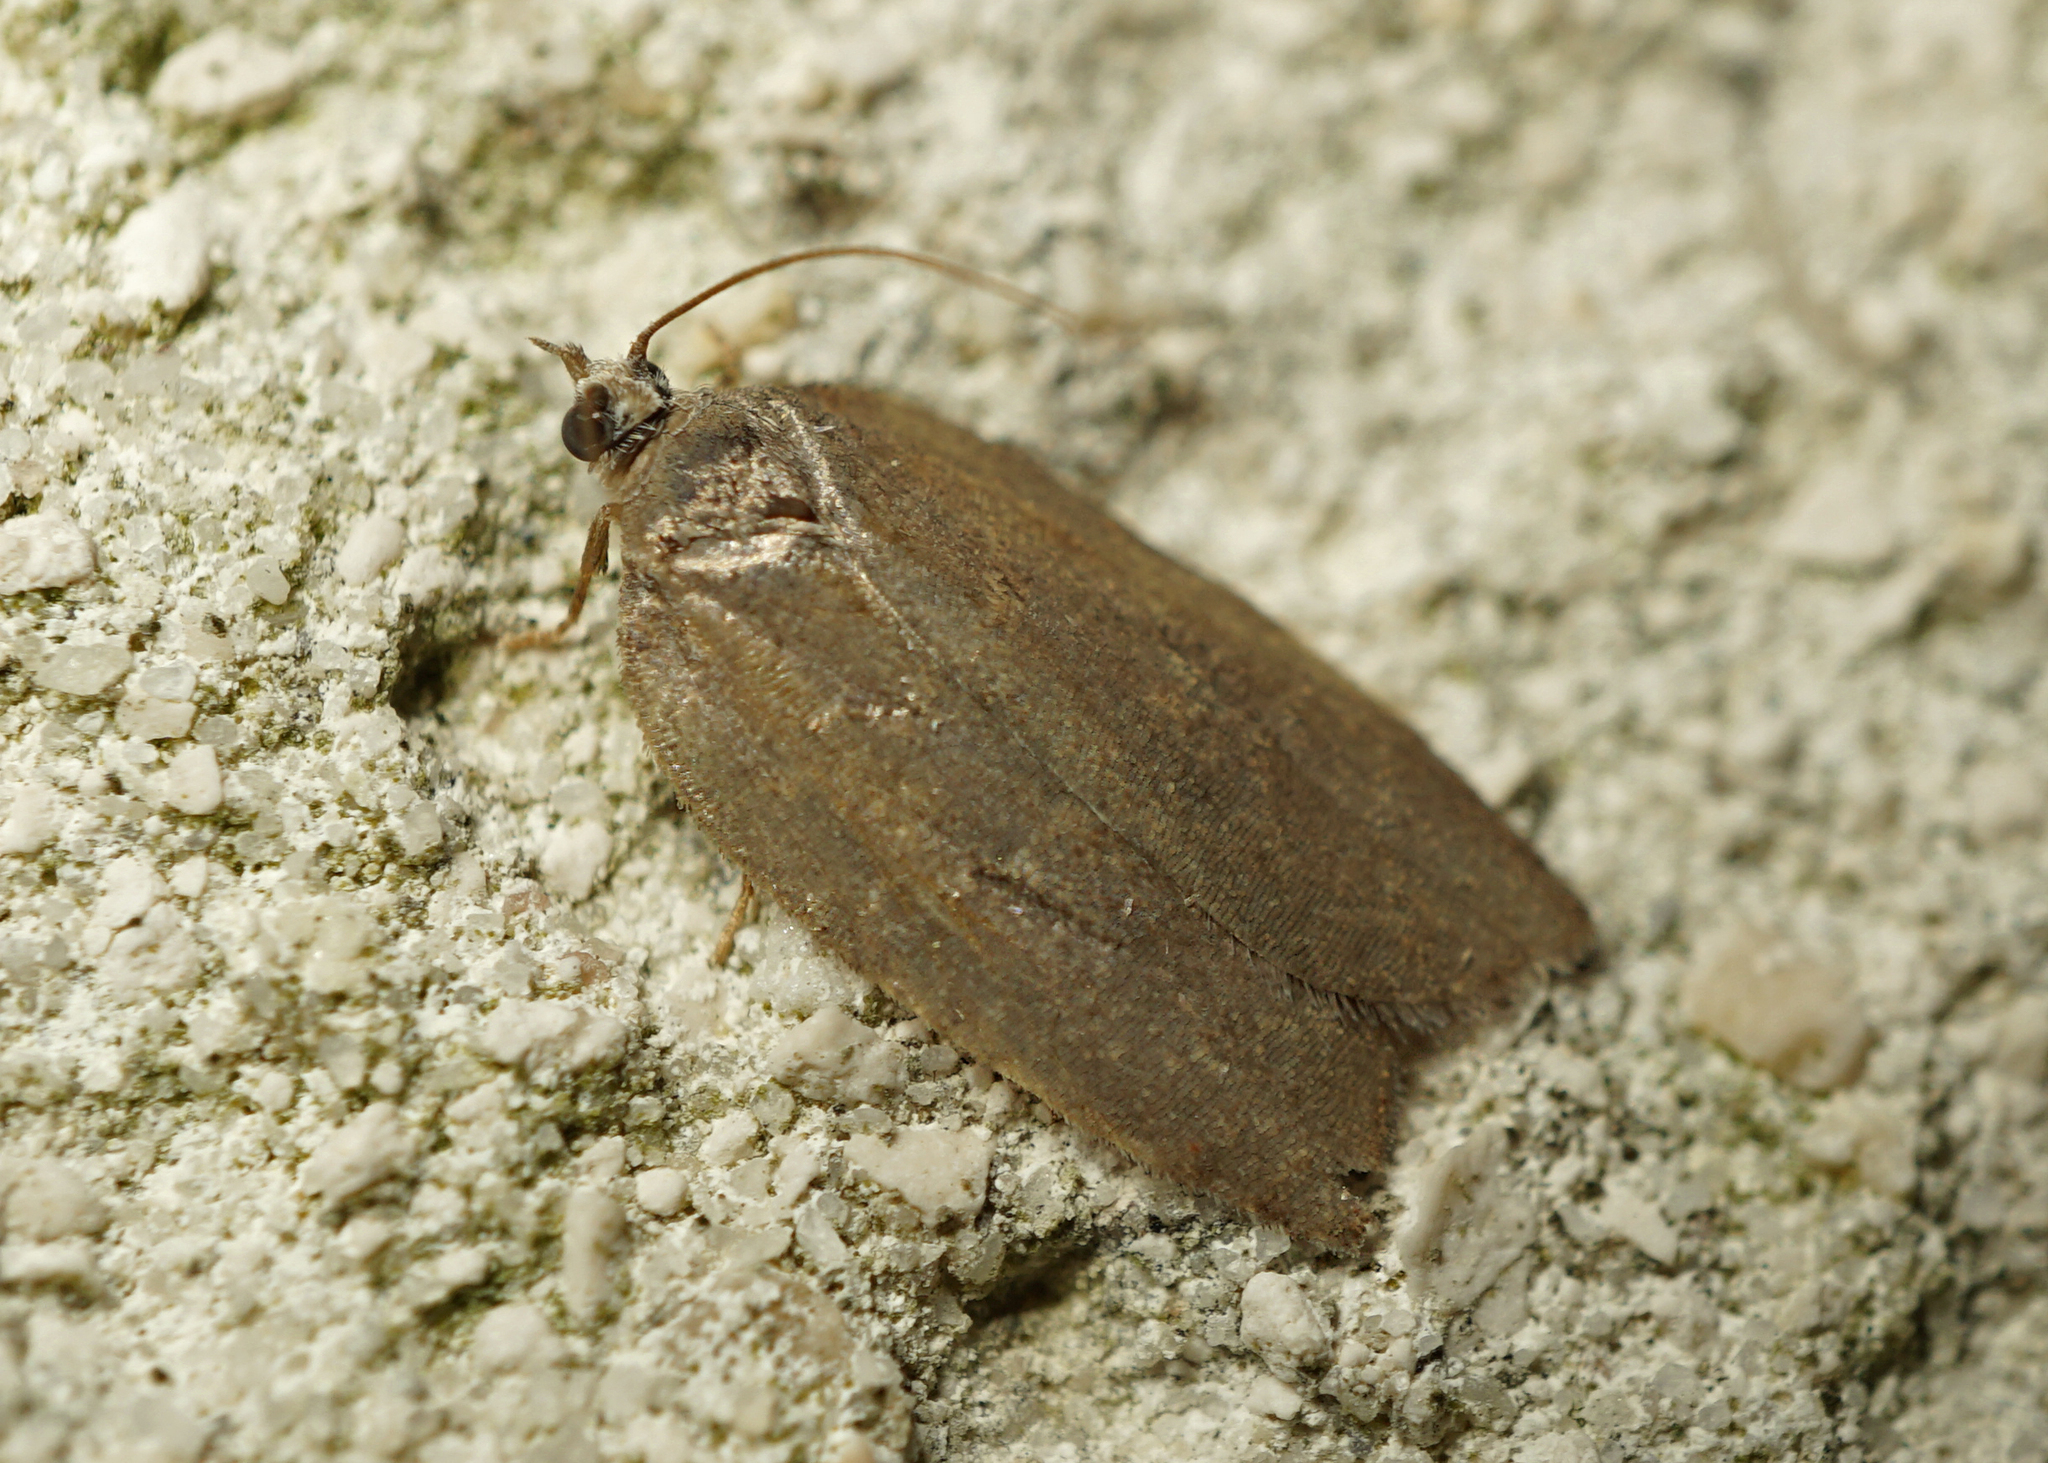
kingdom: Animalia
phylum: Arthropoda
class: Insecta
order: Lepidoptera
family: Tortricidae
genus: Acleris
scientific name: Acleris sparsana
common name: Ashy button
